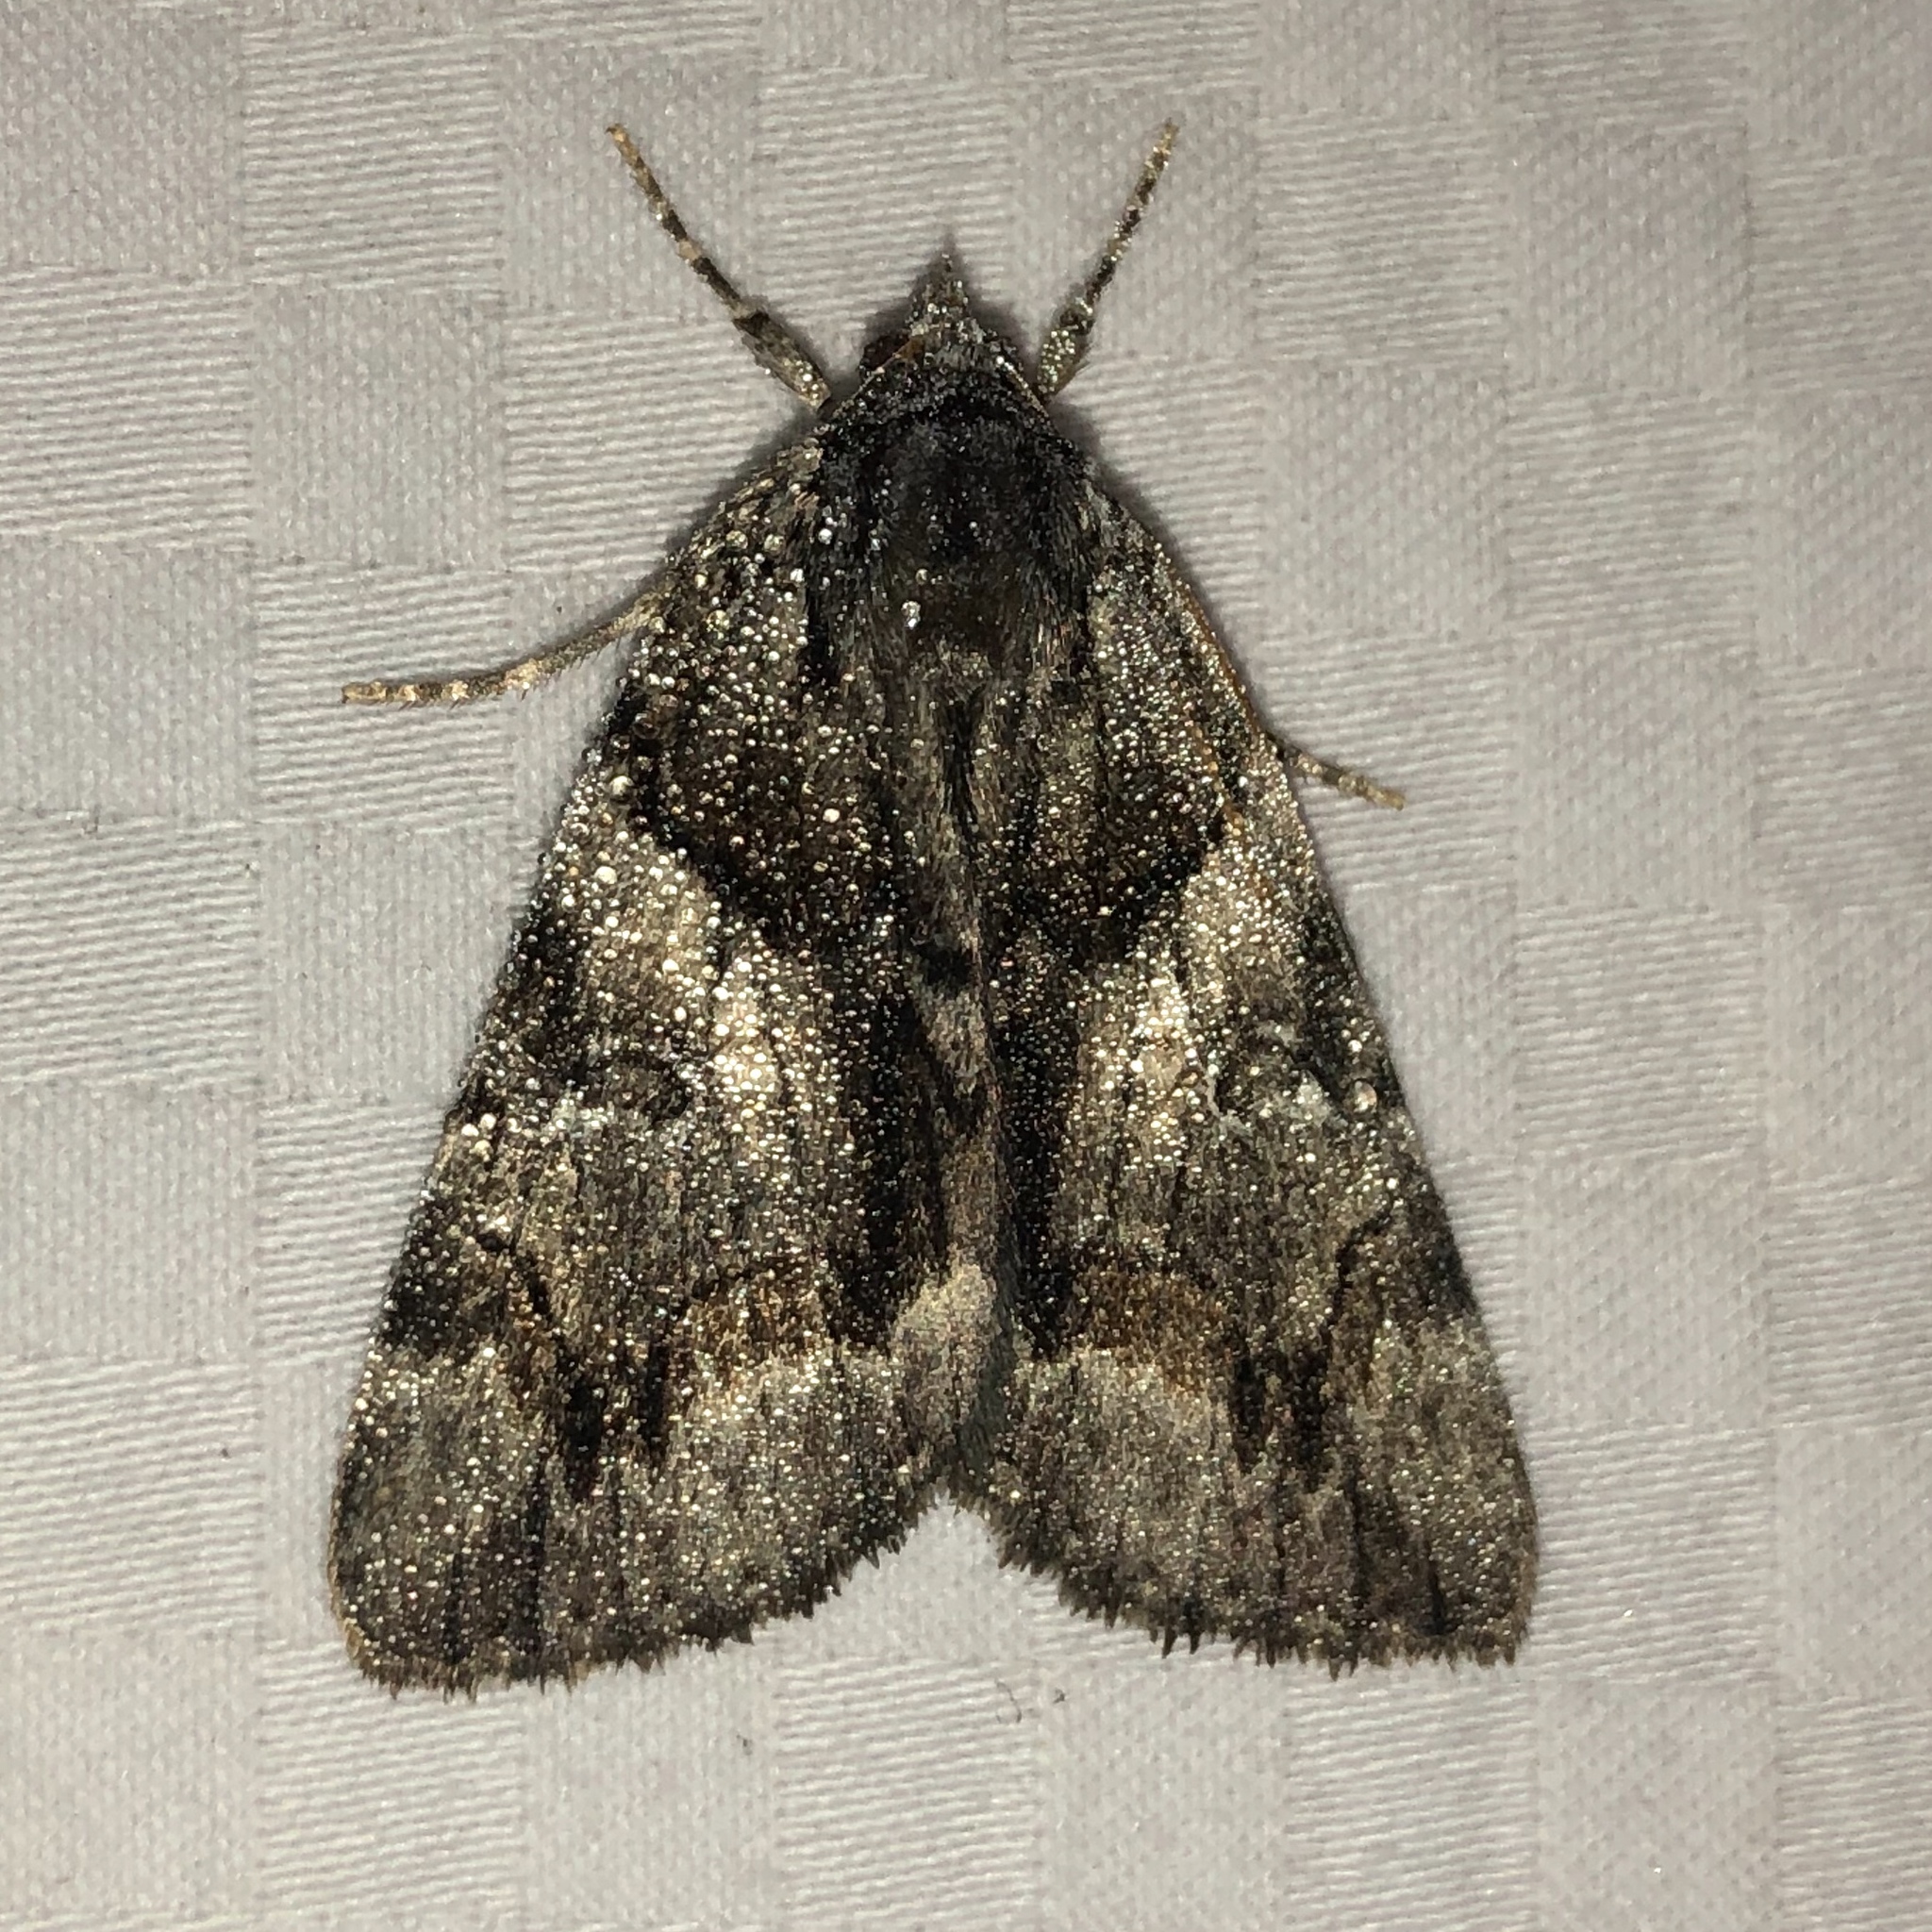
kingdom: Animalia
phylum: Arthropoda
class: Insecta
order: Lepidoptera
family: Erebidae
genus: Catocala
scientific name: Catocala blandula
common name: Charming underwing
